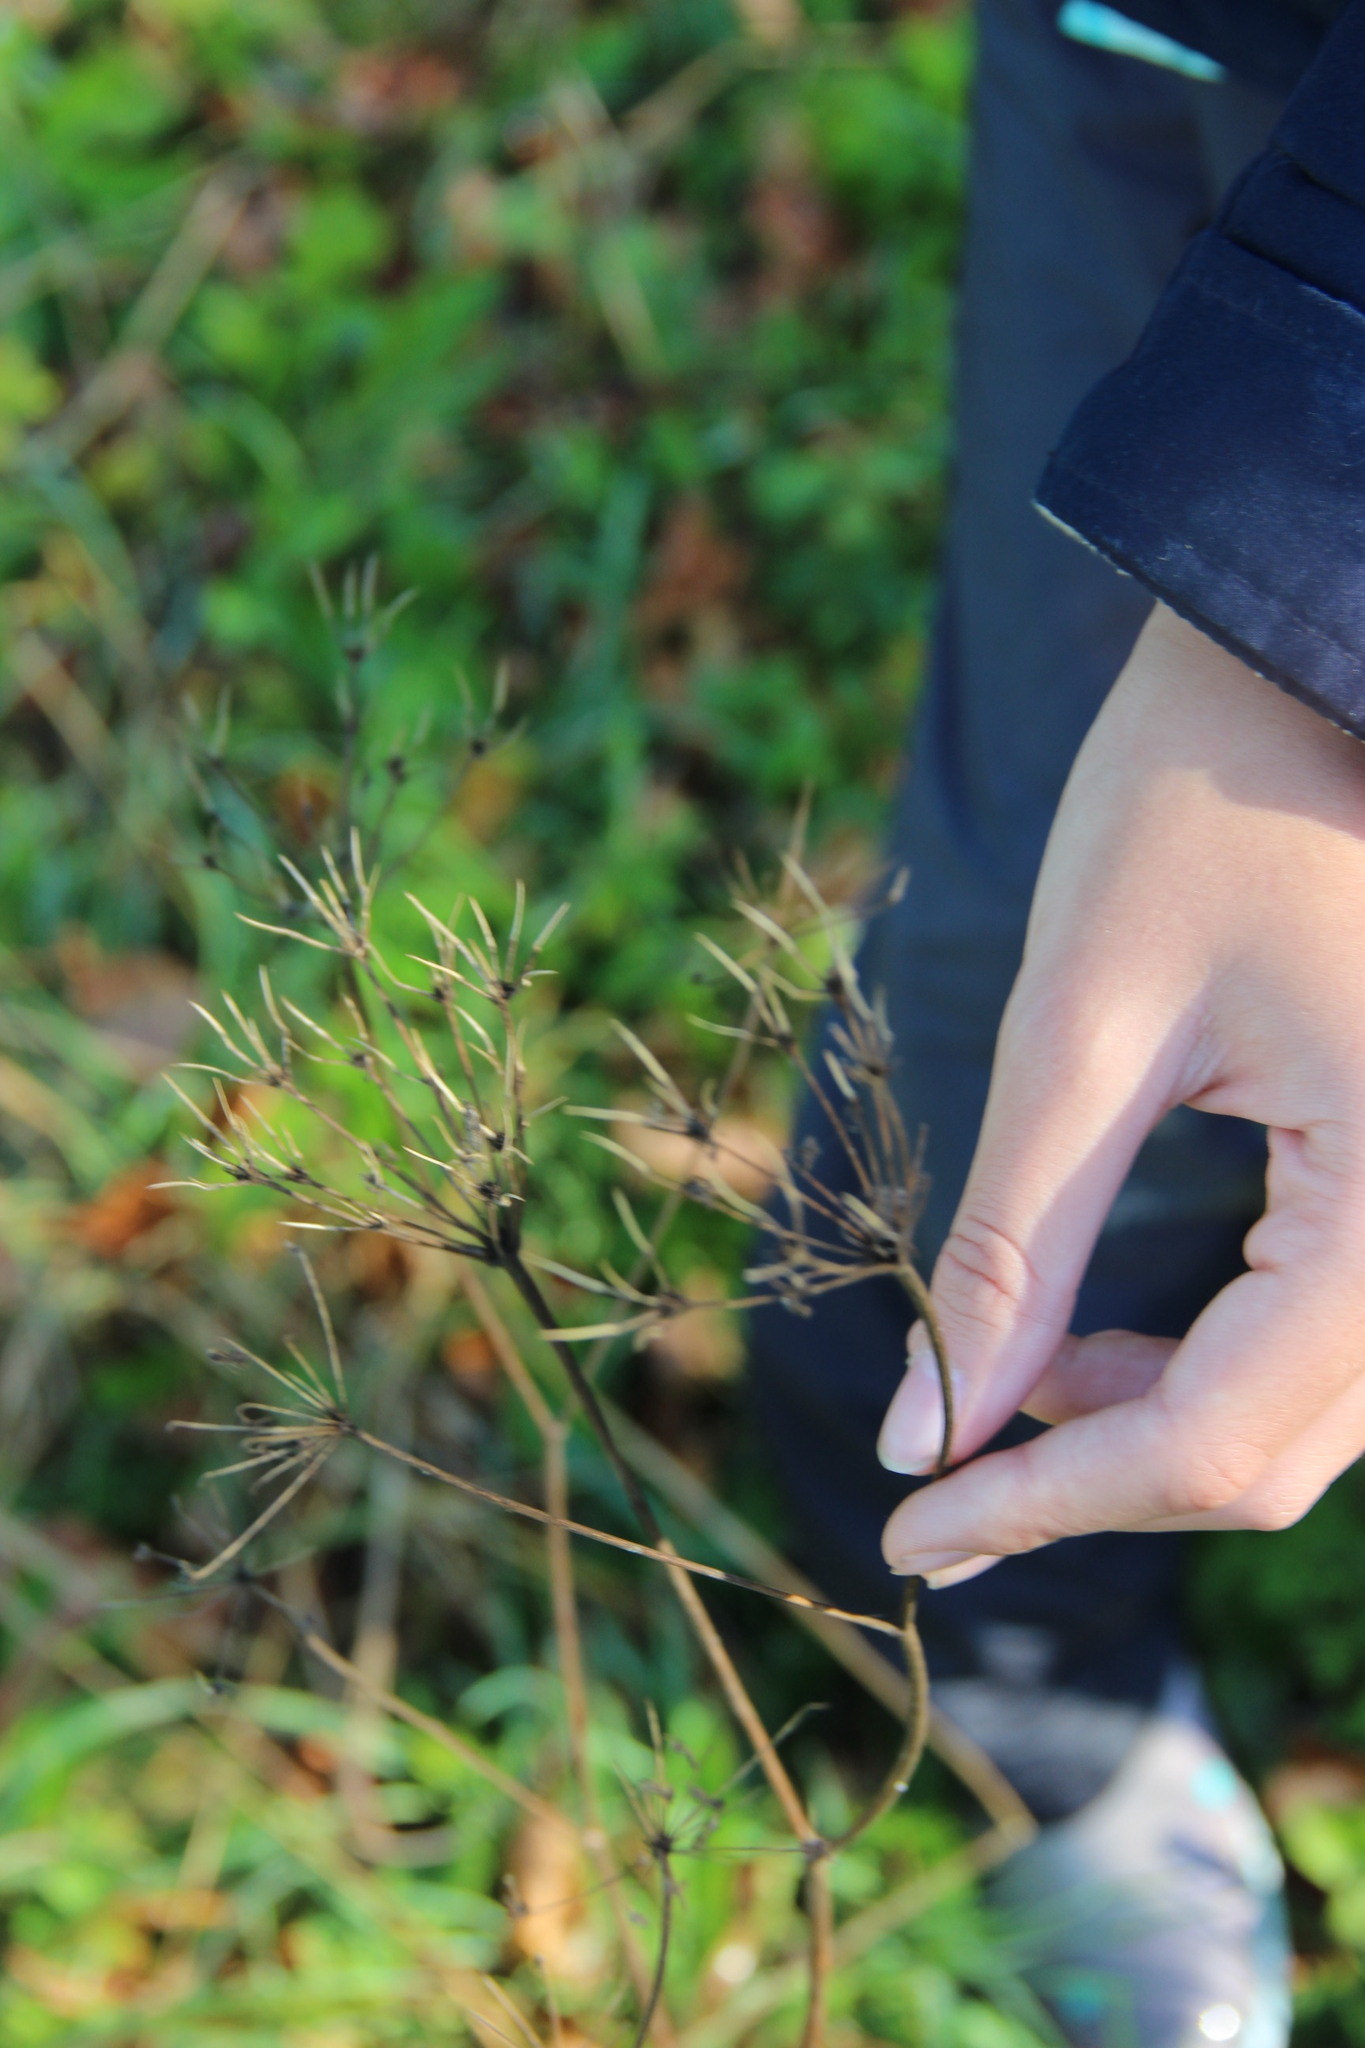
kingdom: Plantae
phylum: Tracheophyta
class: Magnoliopsida
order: Apiales
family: Apiaceae
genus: Chaerophyllum
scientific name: Chaerophyllum aromaticum
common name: Broadleaf chervil
